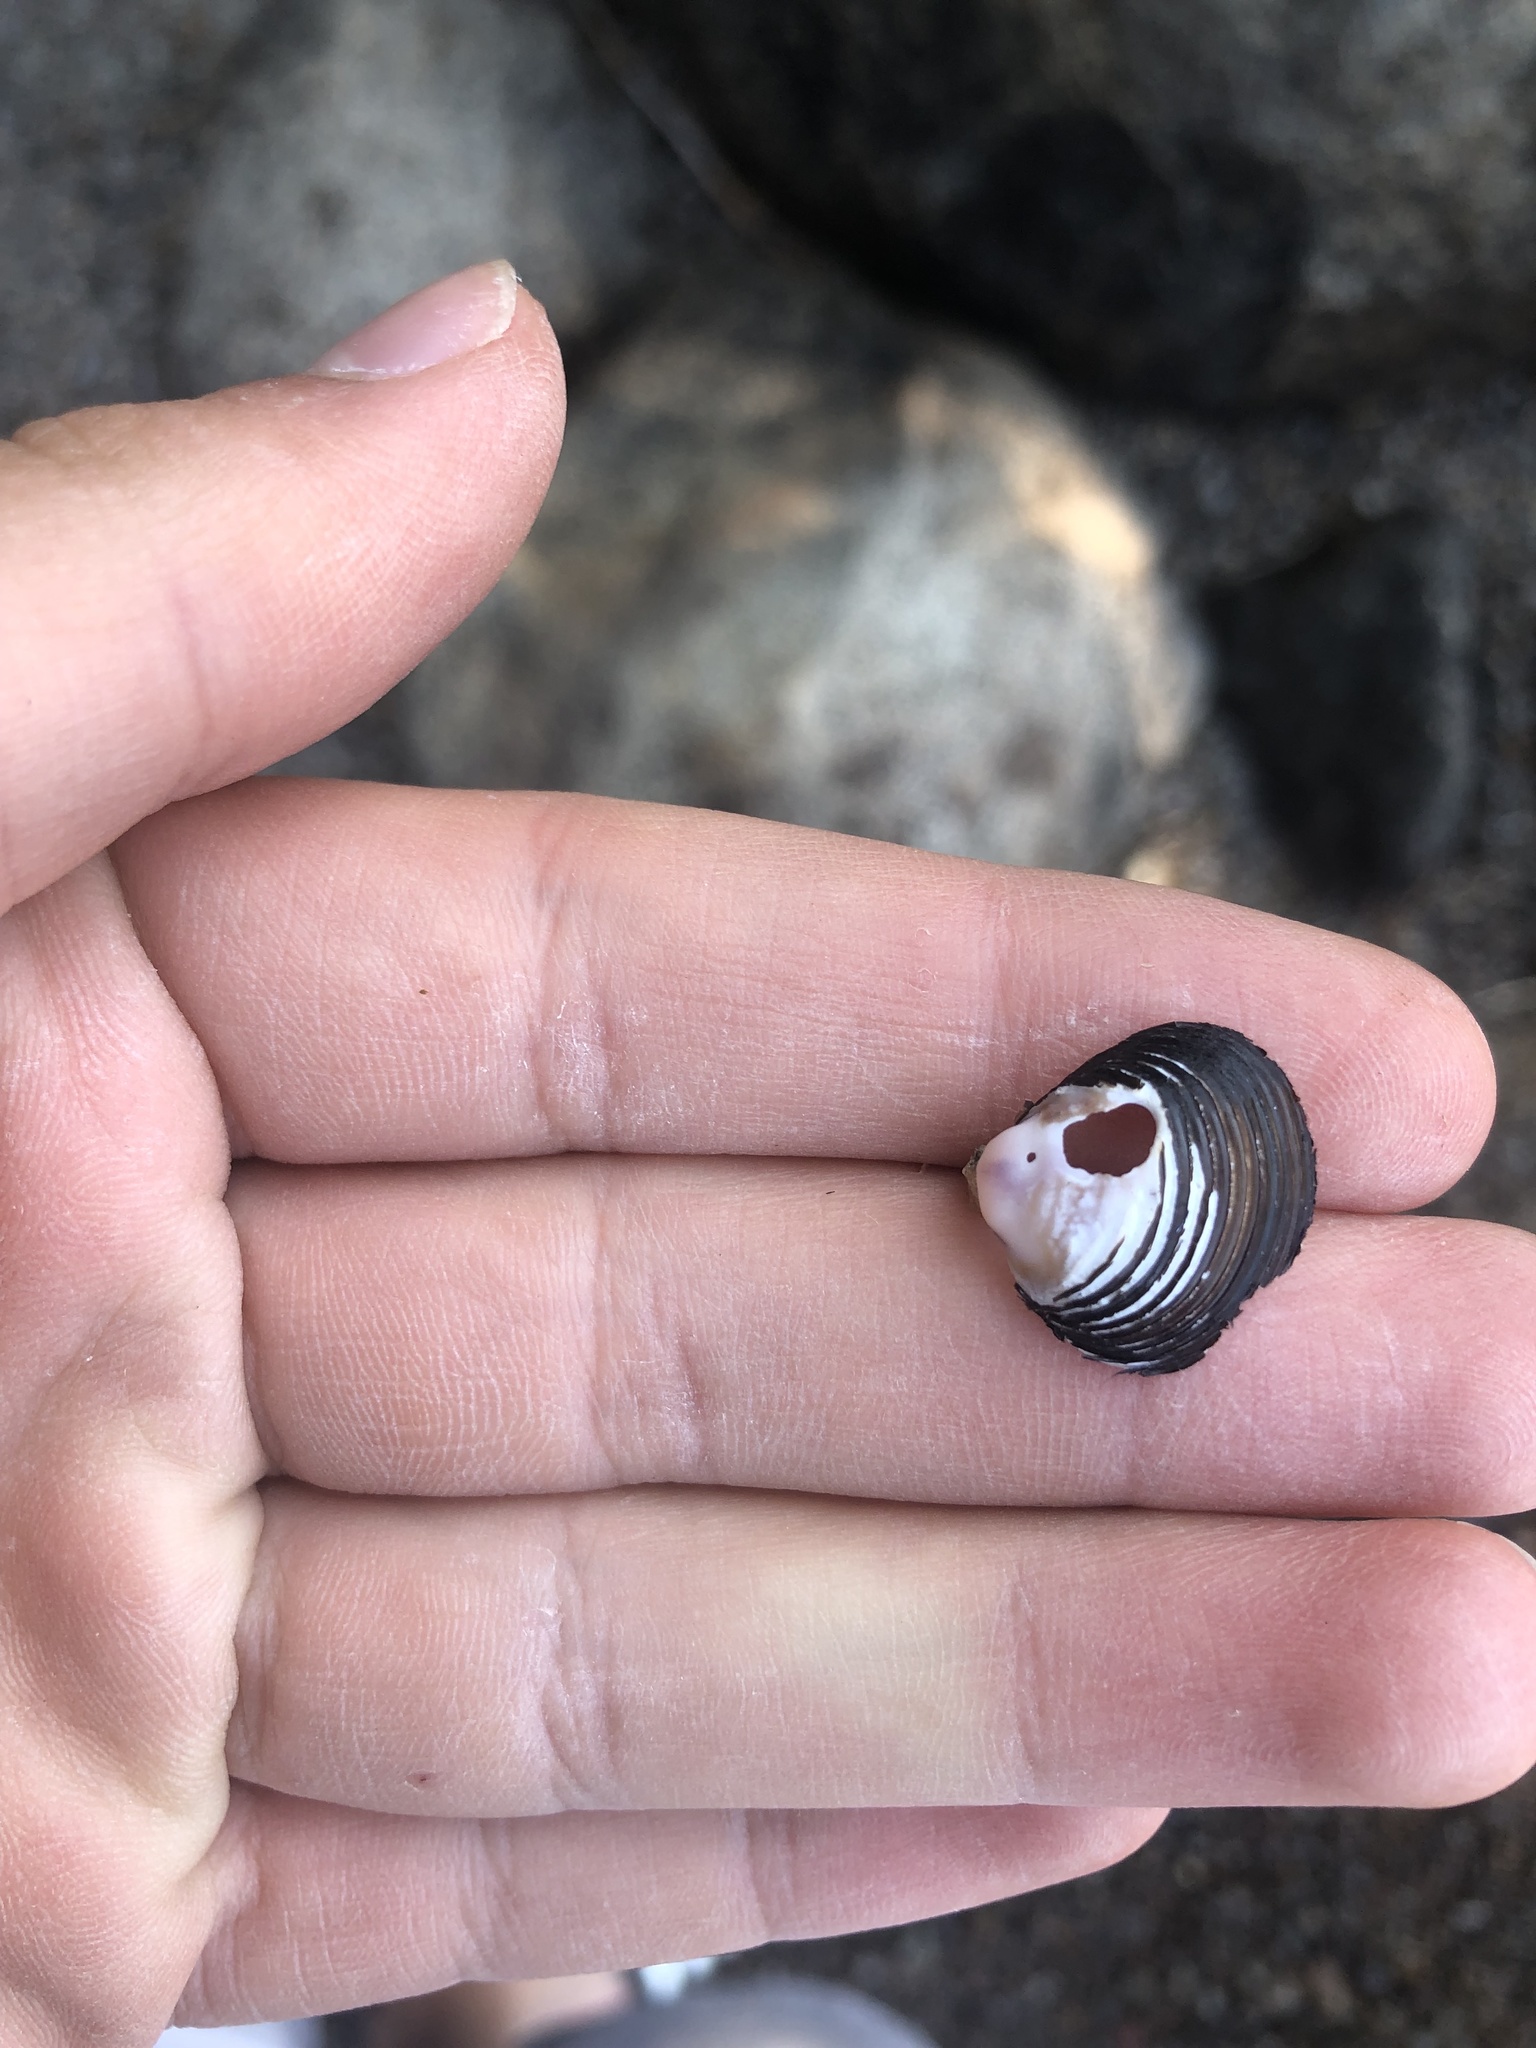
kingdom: Animalia
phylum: Mollusca
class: Bivalvia
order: Venerida
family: Cyrenidae
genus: Corbicula
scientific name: Corbicula fluminea
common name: Asian clam
